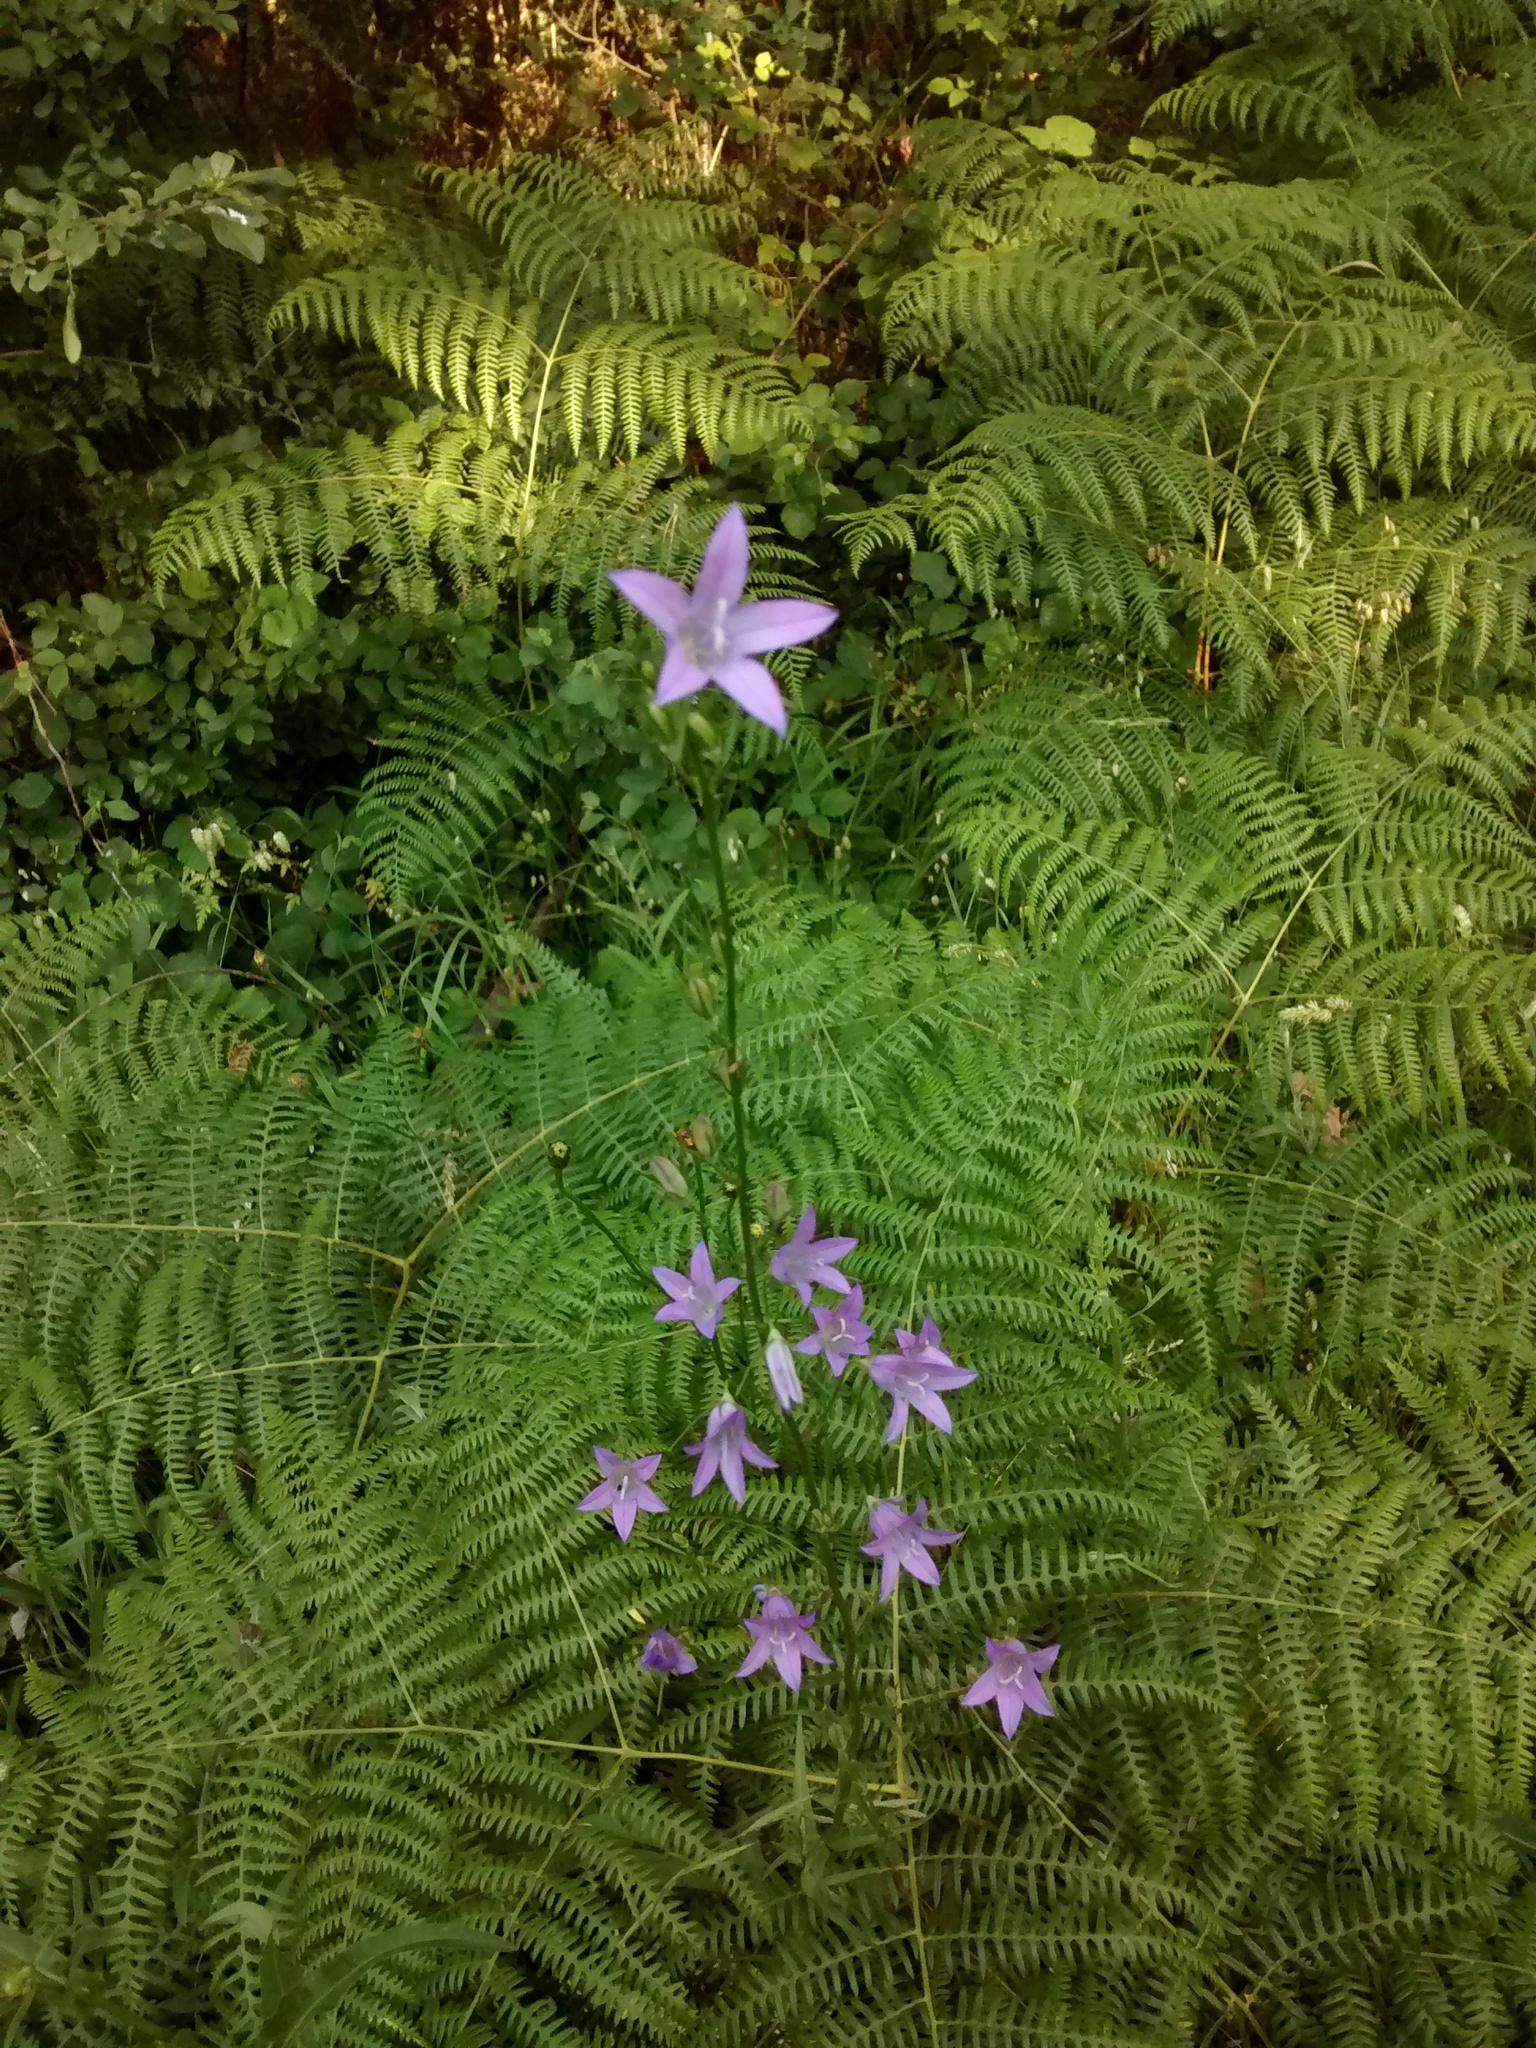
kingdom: Plantae
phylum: Tracheophyta
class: Magnoliopsida
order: Asterales
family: Campanulaceae
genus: Campanula
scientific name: Campanula rapunculus
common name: Rampion bellflower
